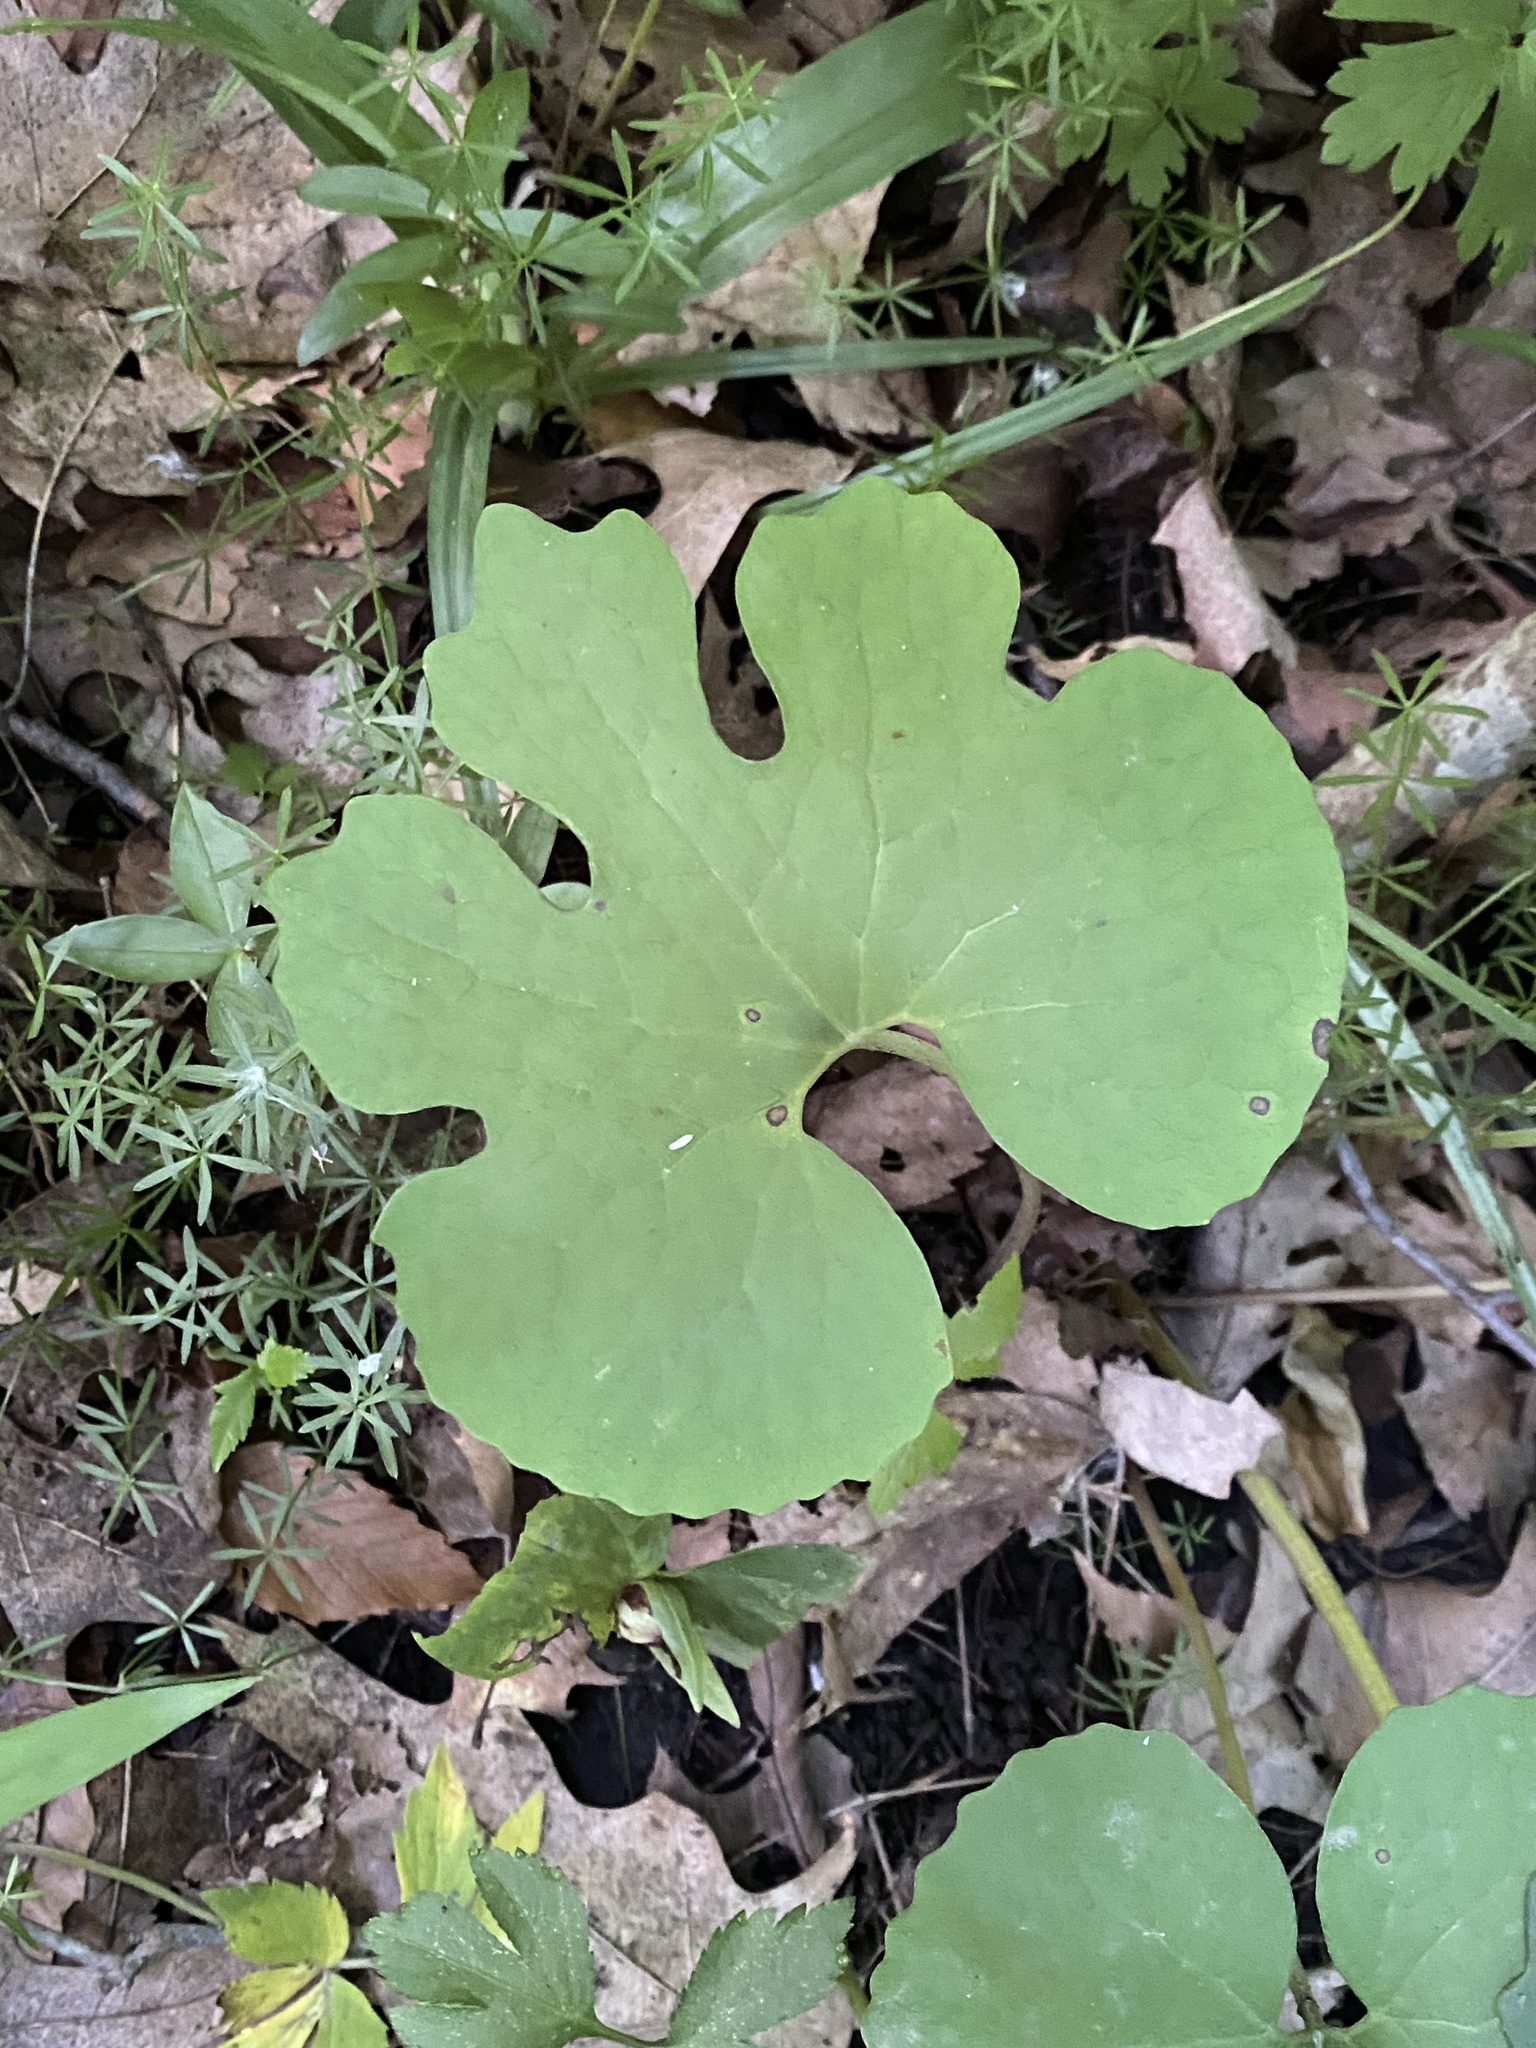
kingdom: Plantae
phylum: Tracheophyta
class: Magnoliopsida
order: Ranunculales
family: Papaveraceae
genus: Sanguinaria
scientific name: Sanguinaria canadensis
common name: Bloodroot
